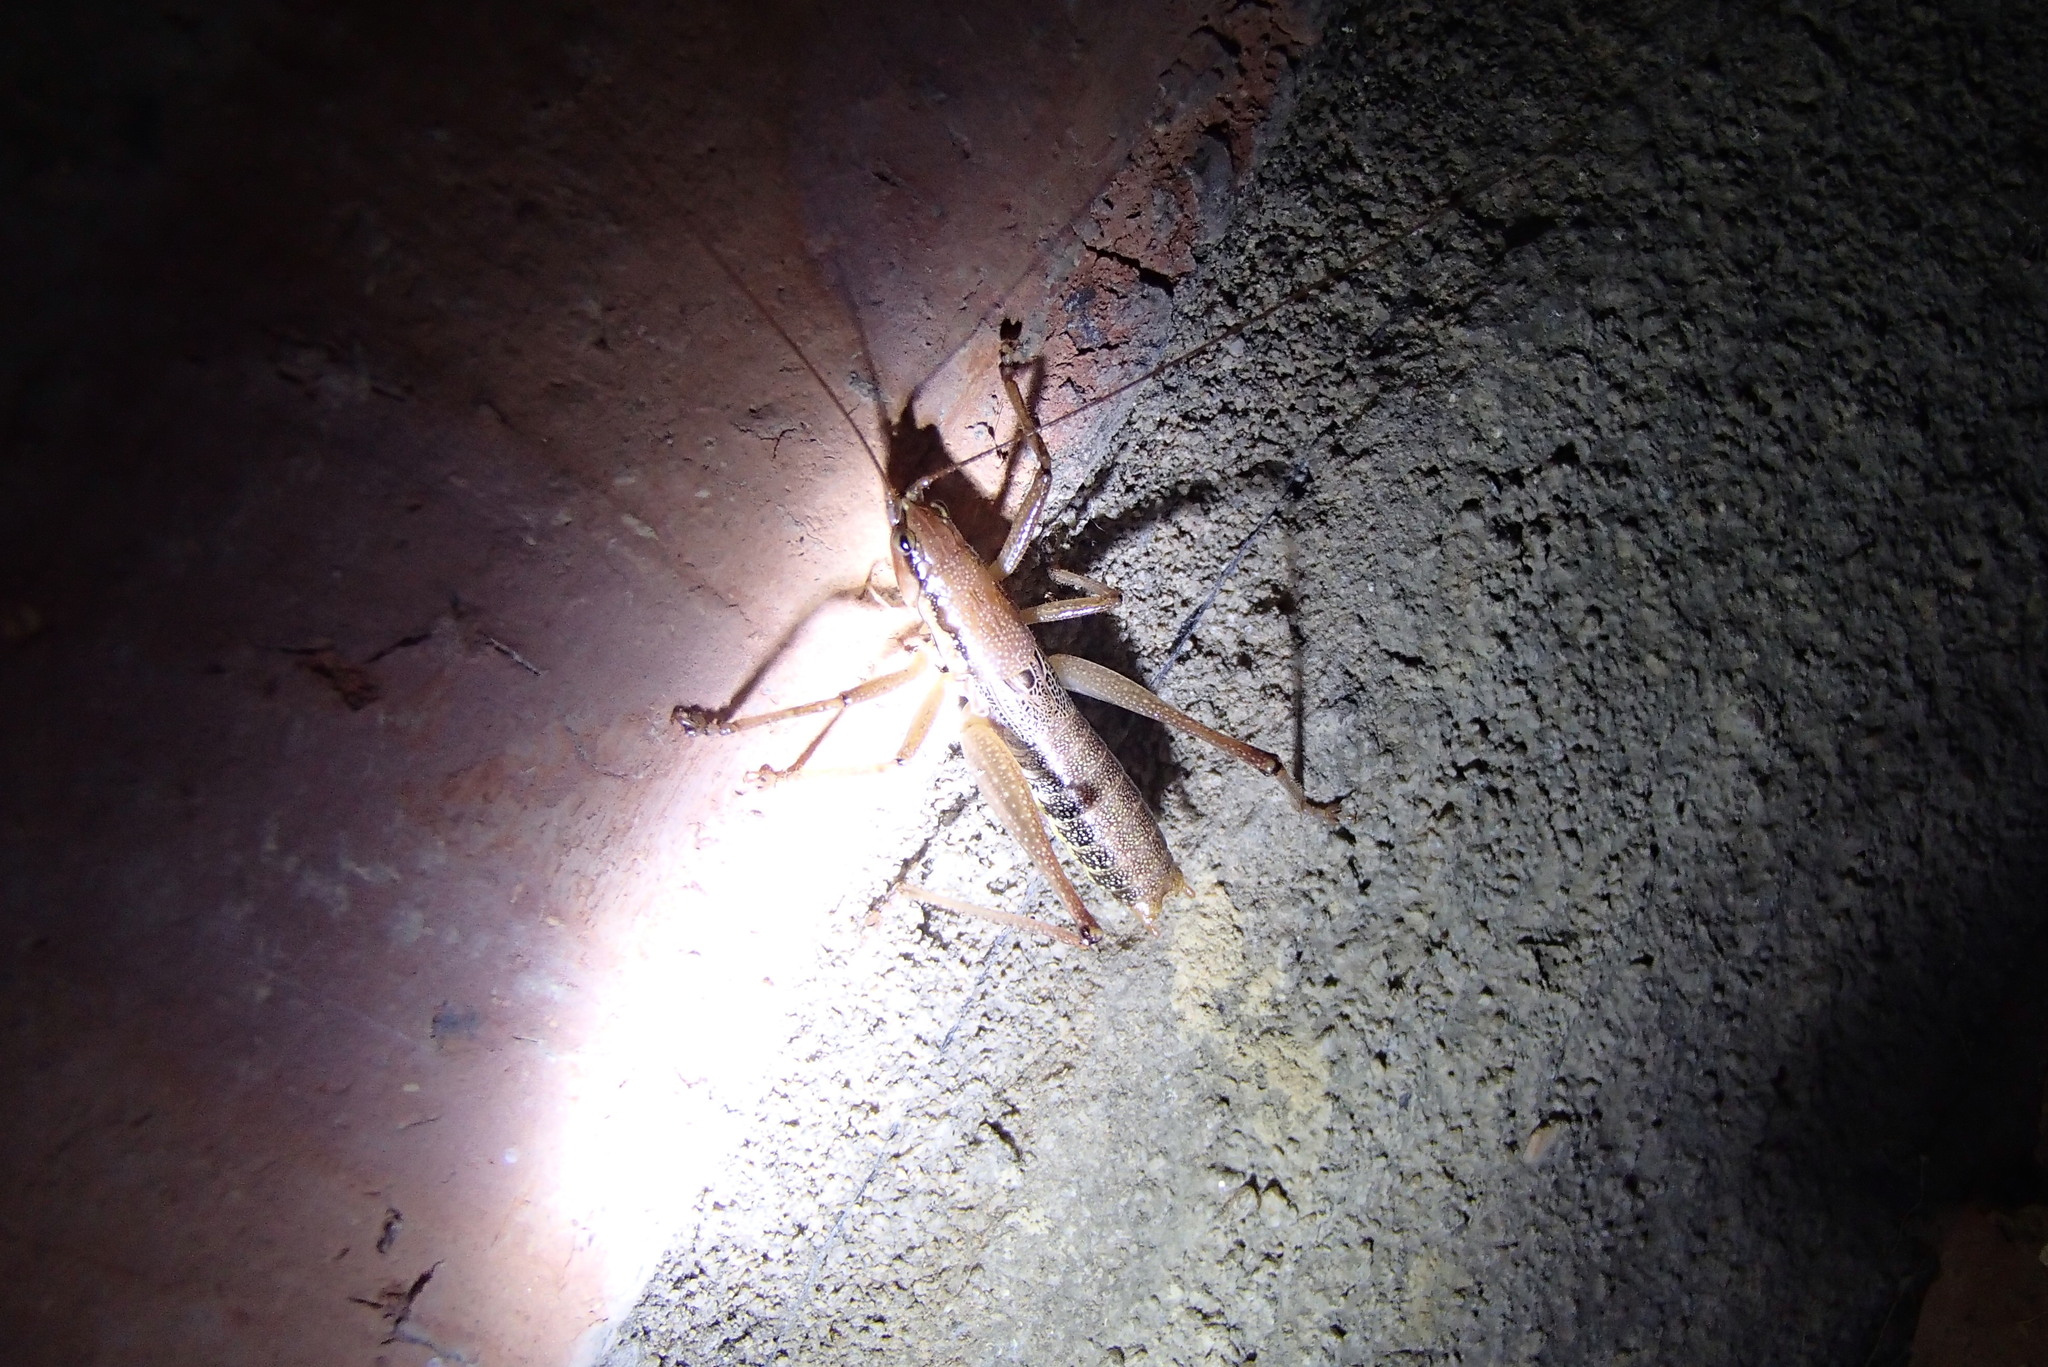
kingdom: Animalia
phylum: Arthropoda
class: Insecta
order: Orthoptera
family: Tettigoniidae
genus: Coptaspis
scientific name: Coptaspis brevipennis
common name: Sidney woodland katydid
